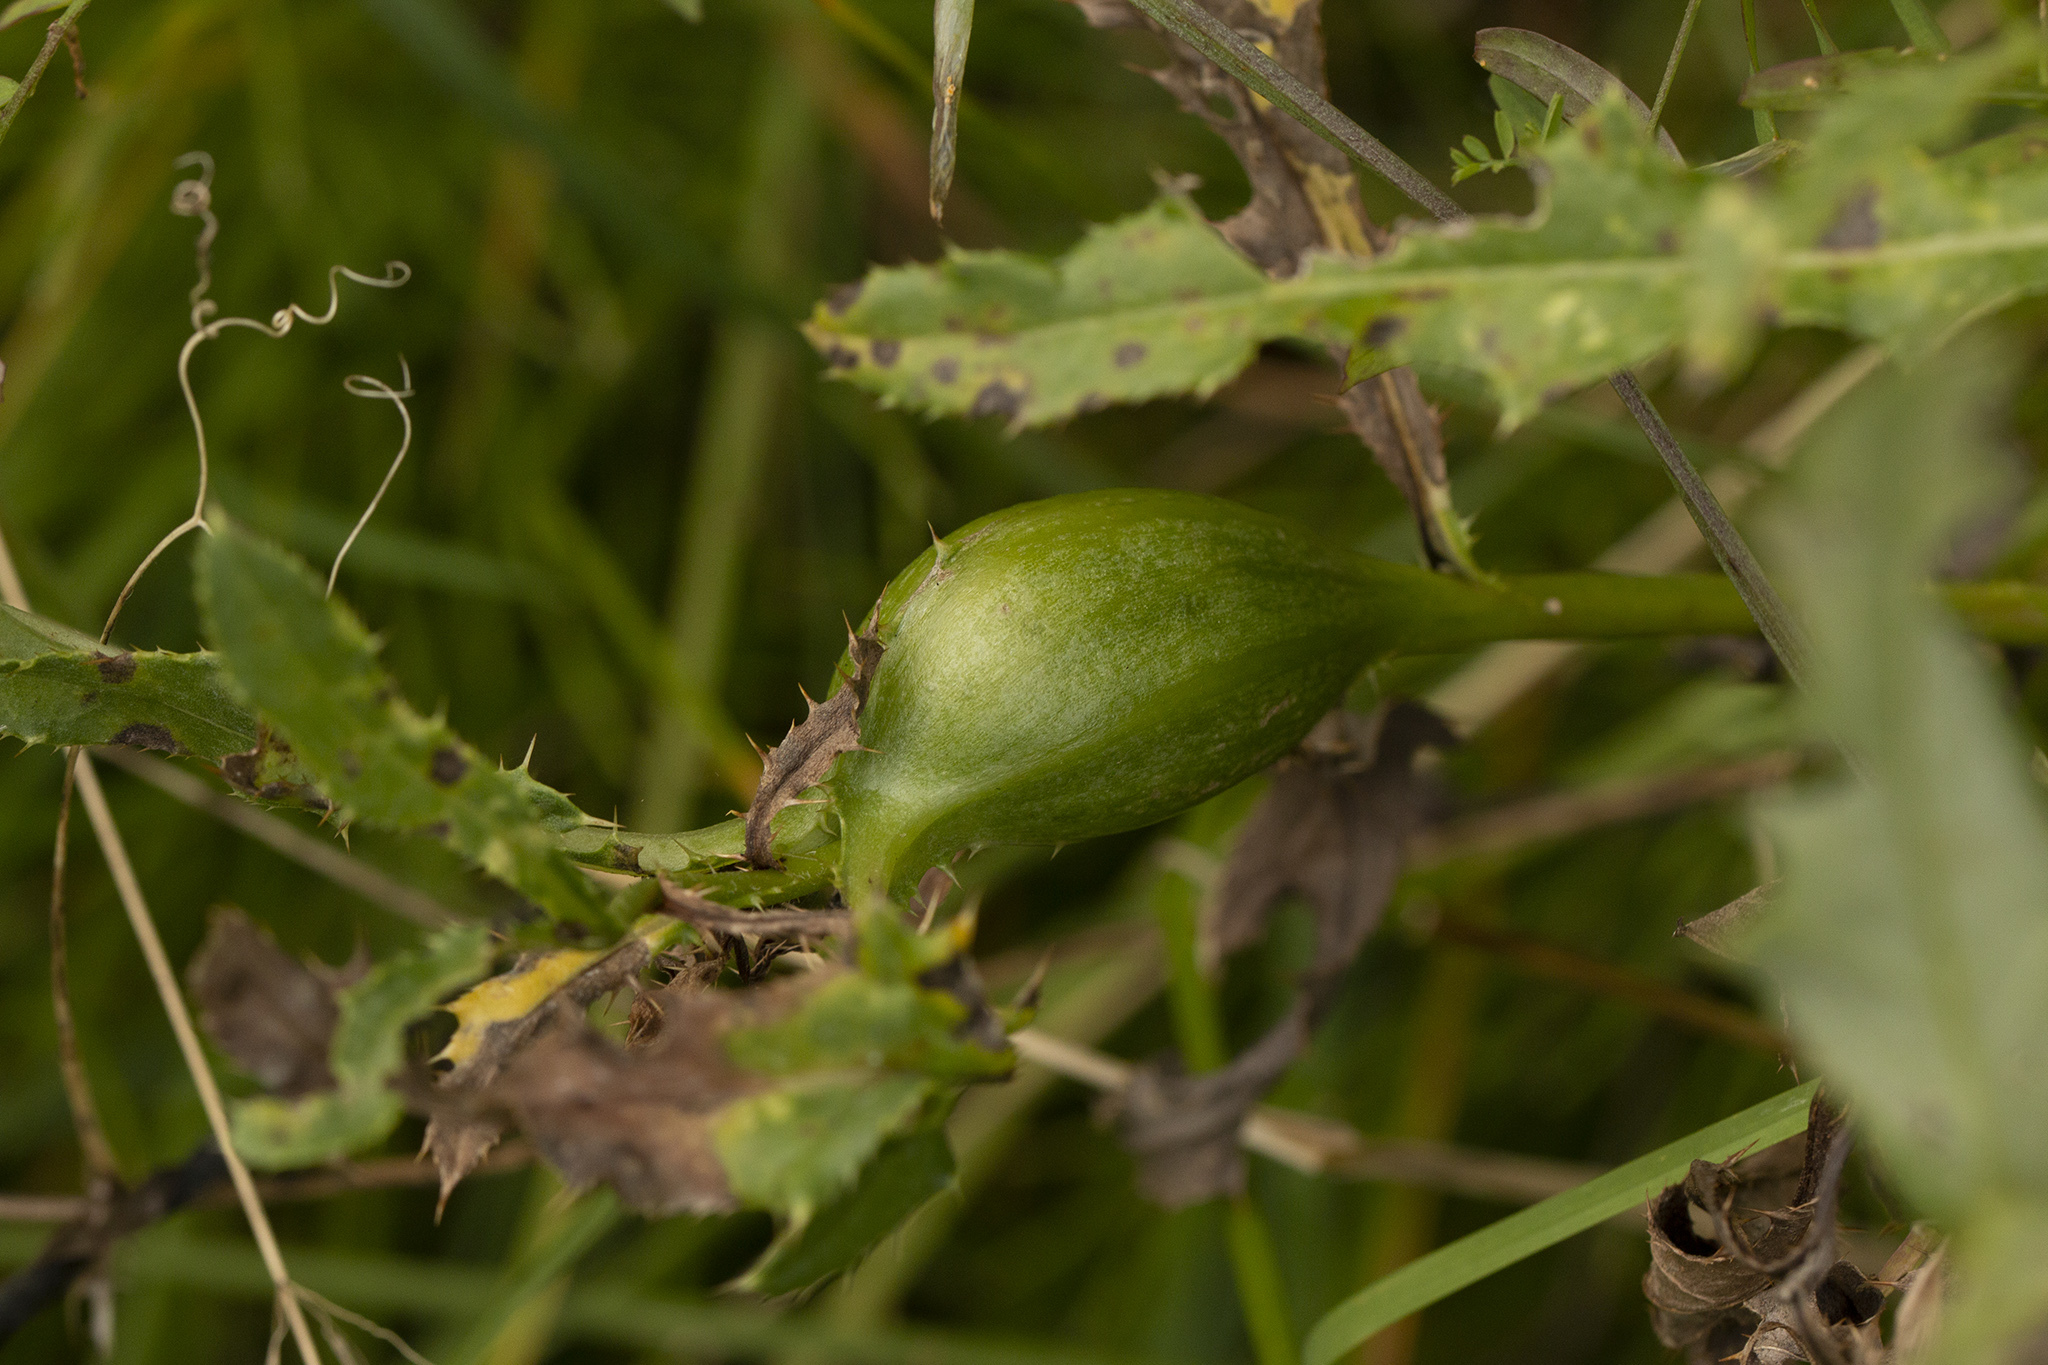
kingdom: Animalia
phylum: Arthropoda
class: Insecta
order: Diptera
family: Tephritidae
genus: Urophora
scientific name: Urophora cardui
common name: Fruit fly
